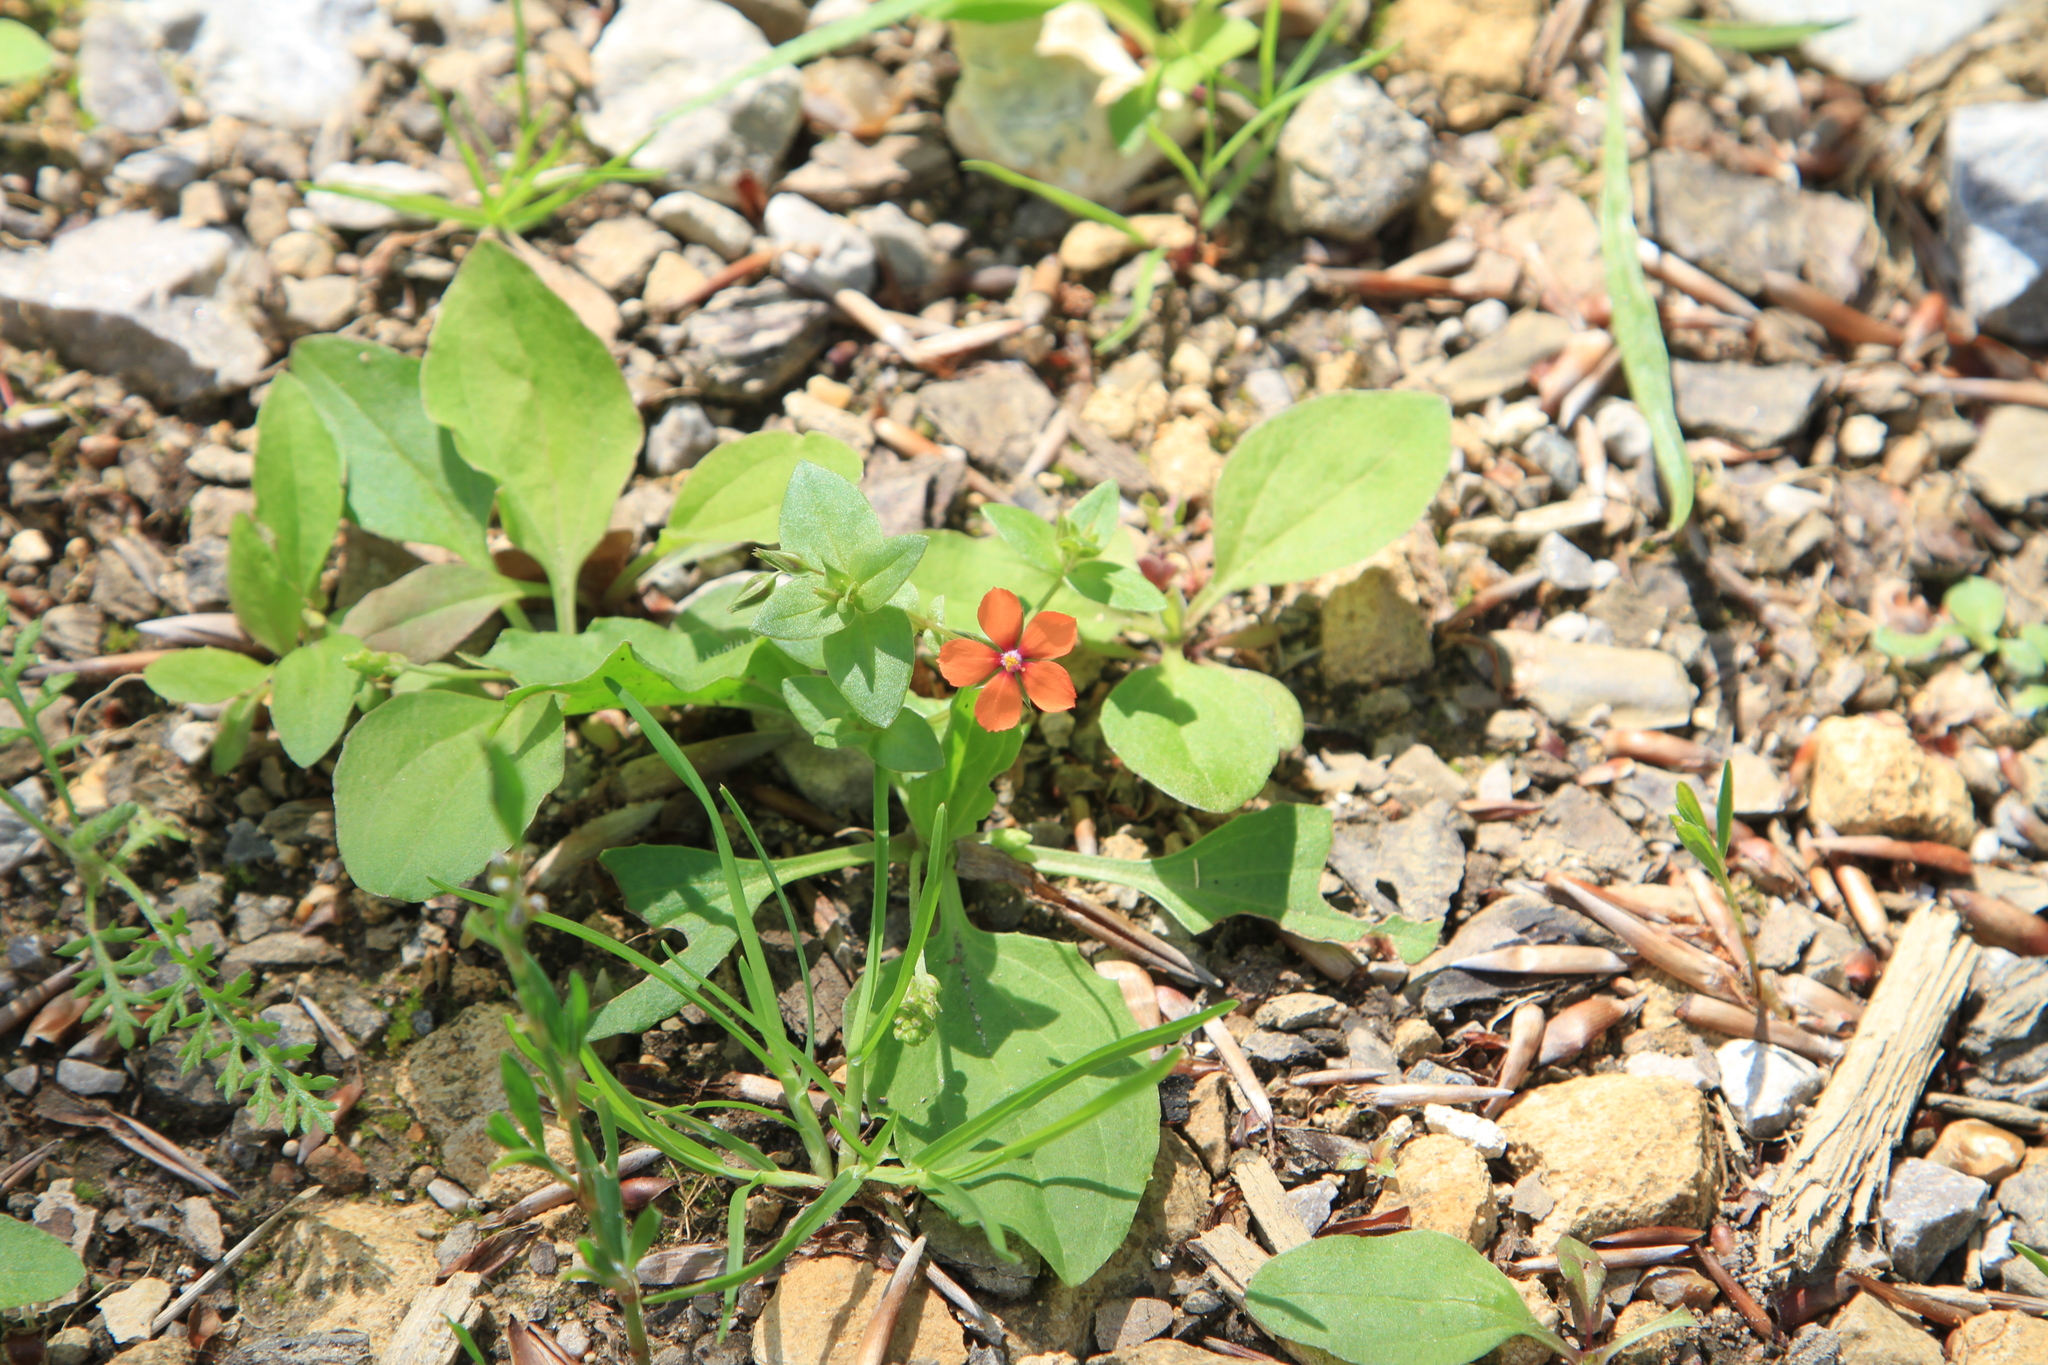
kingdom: Plantae
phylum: Tracheophyta
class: Magnoliopsida
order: Ericales
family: Primulaceae
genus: Lysimachia
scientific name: Lysimachia arvensis
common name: Scarlet pimpernel
